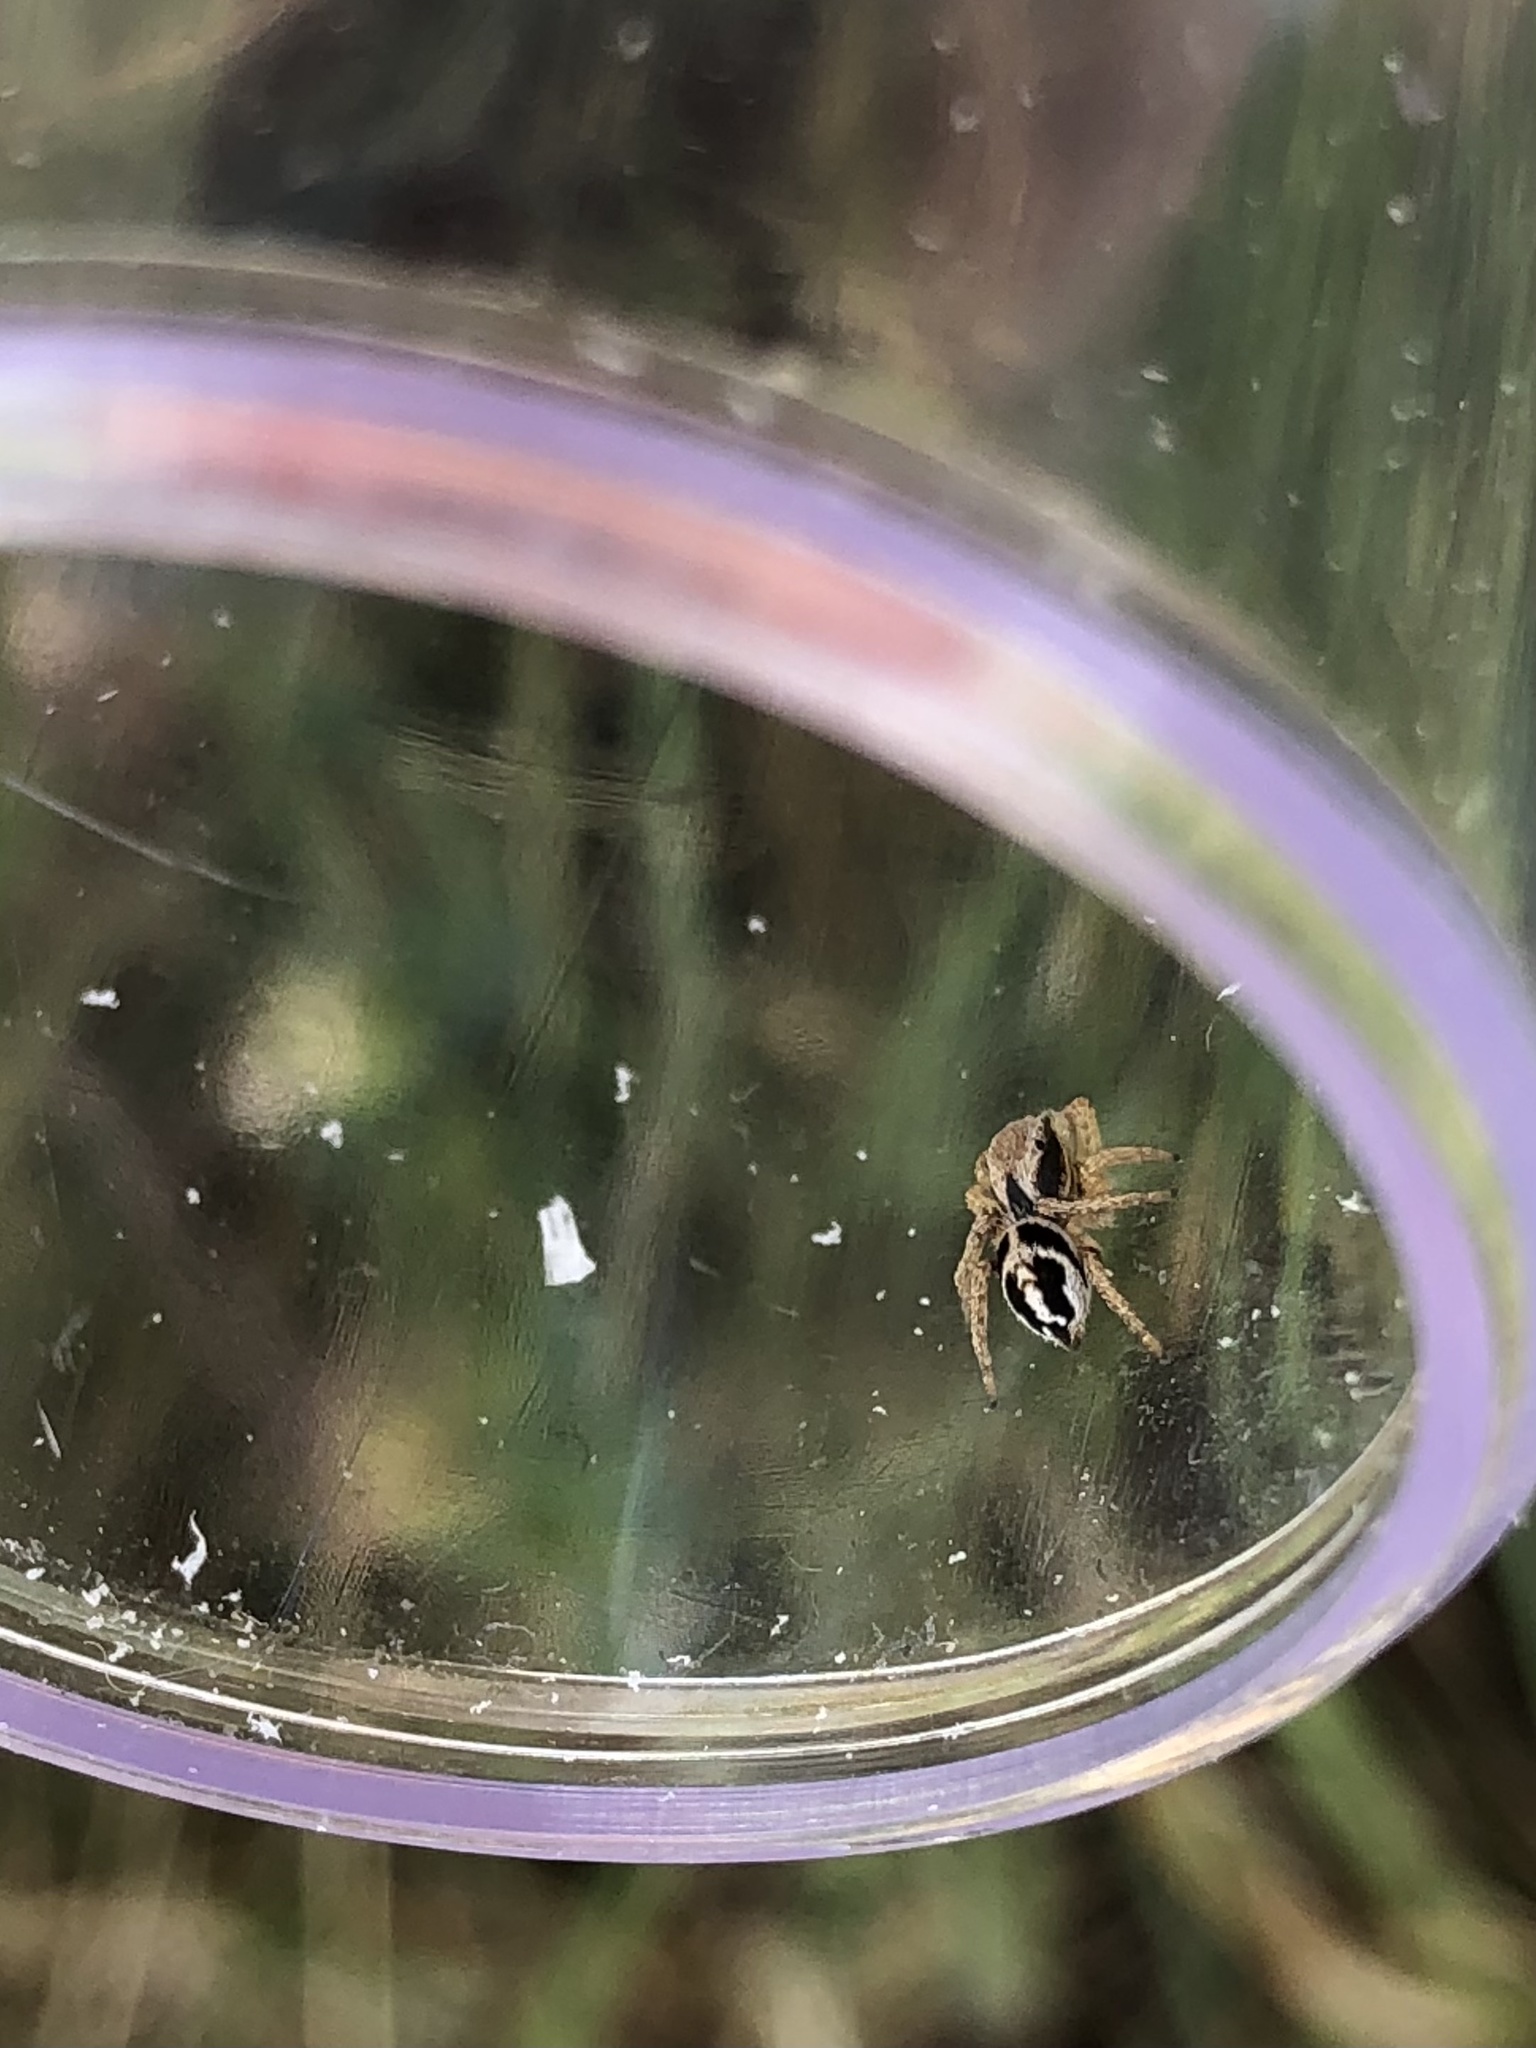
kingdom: Animalia
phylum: Arthropoda
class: Arachnida
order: Araneae
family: Salticidae
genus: Habronattus
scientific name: Habronattus festus
